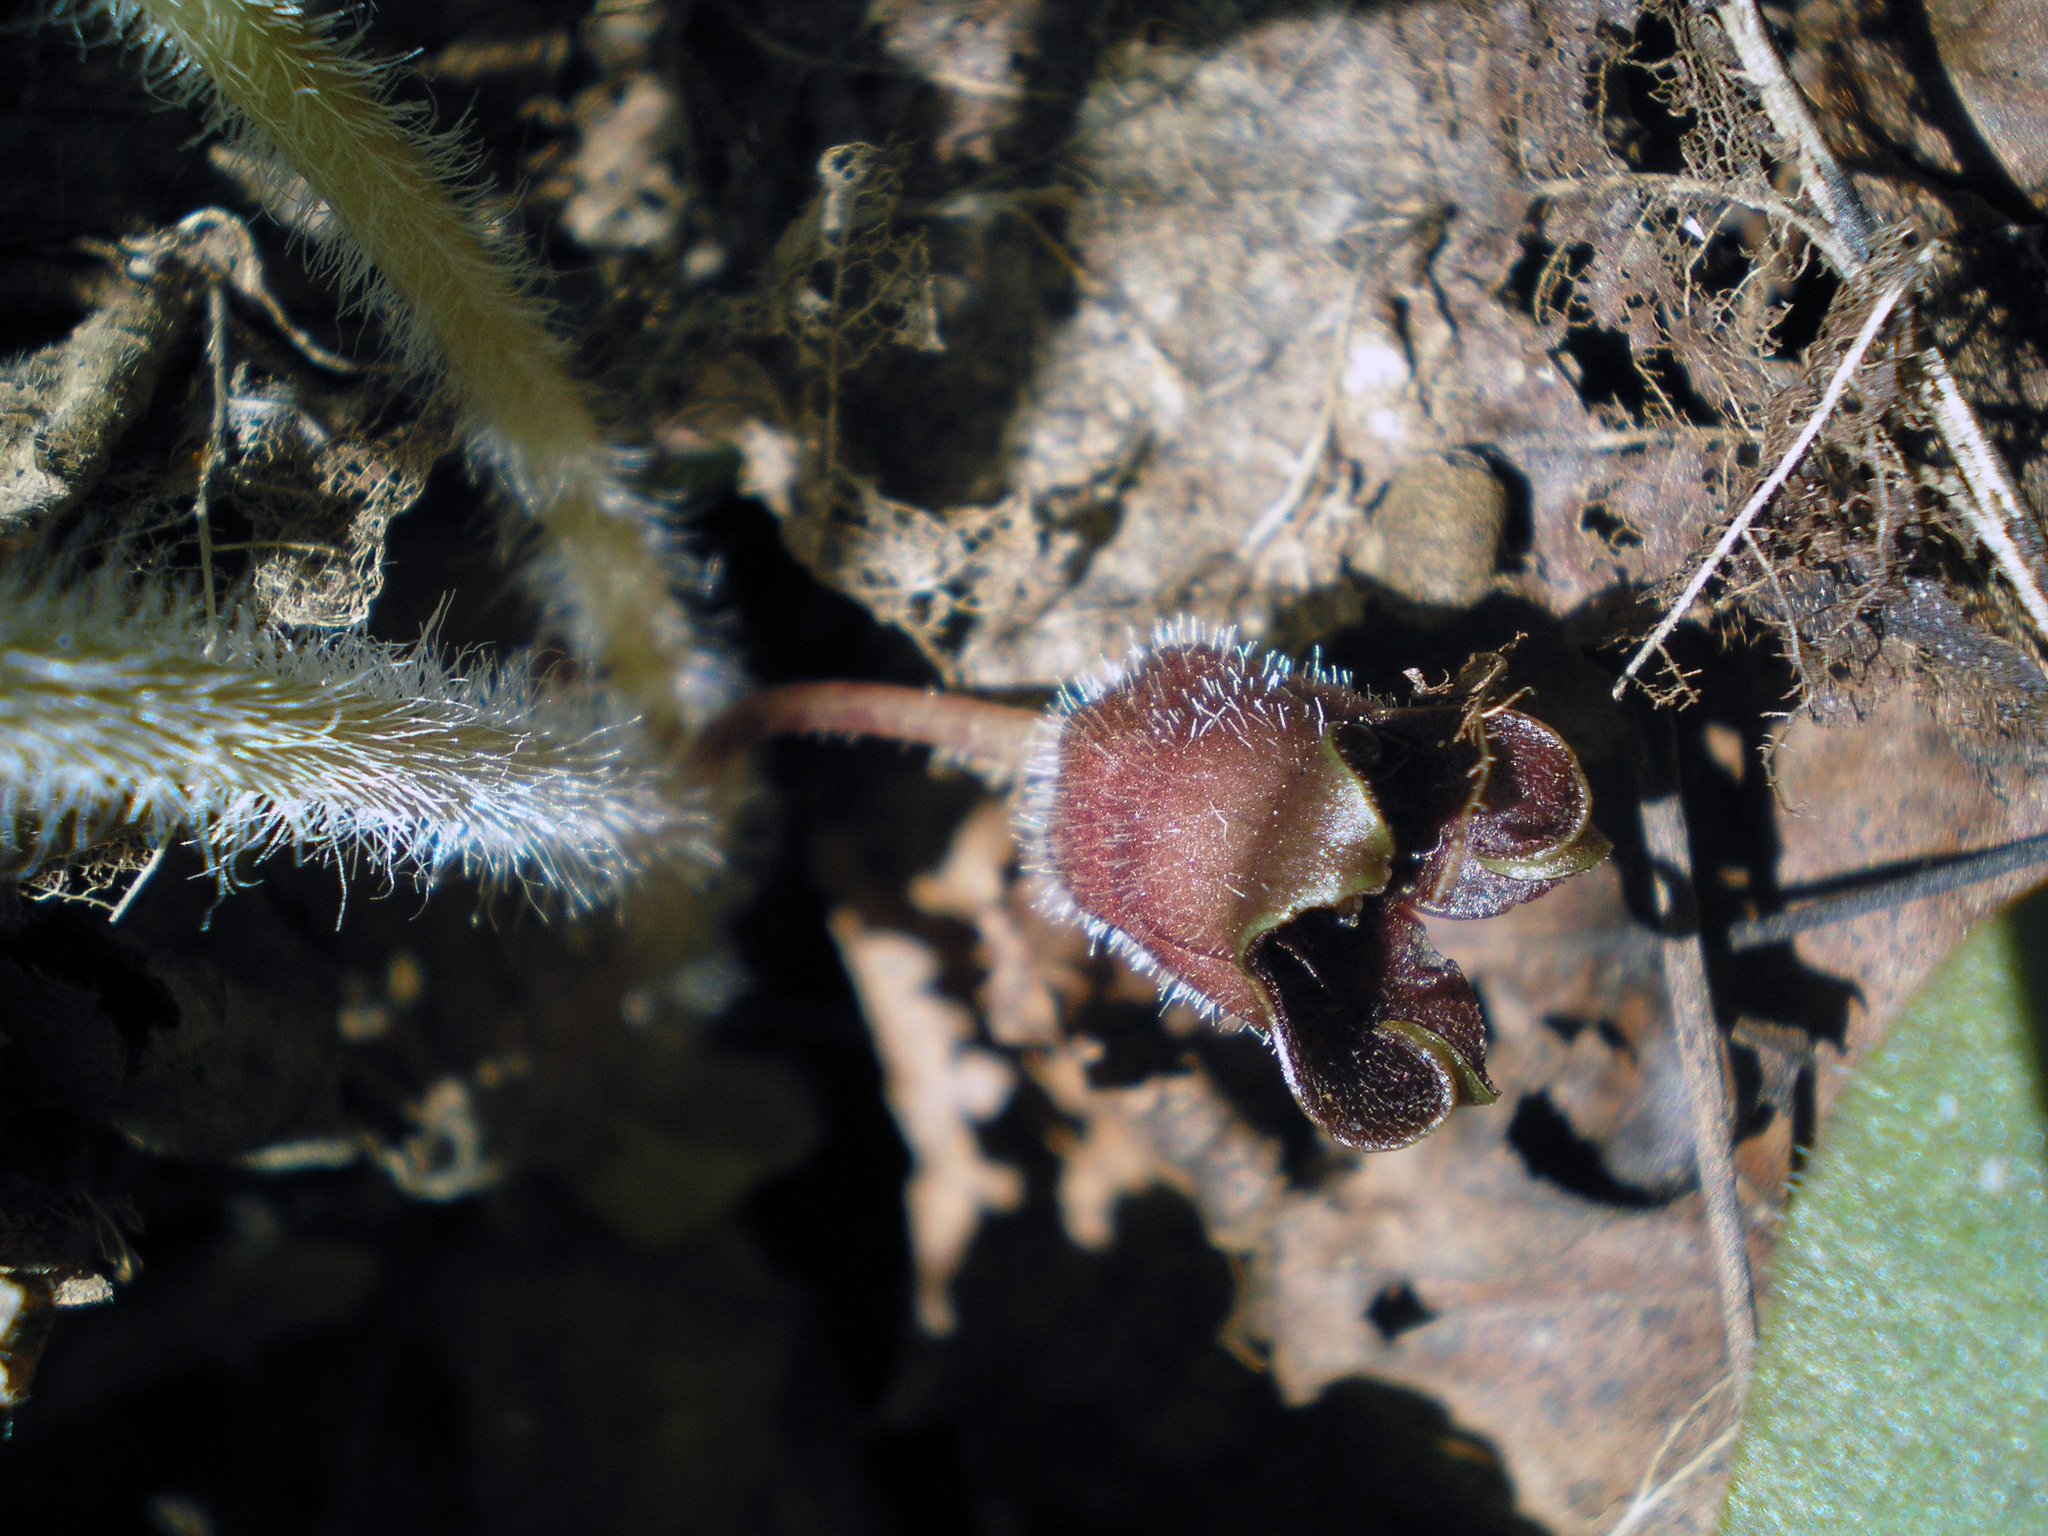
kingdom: Plantae
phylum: Tracheophyta
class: Magnoliopsida
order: Piperales
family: Aristolochiaceae
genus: Asarum
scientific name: Asarum europaeum
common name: Asarabacca
